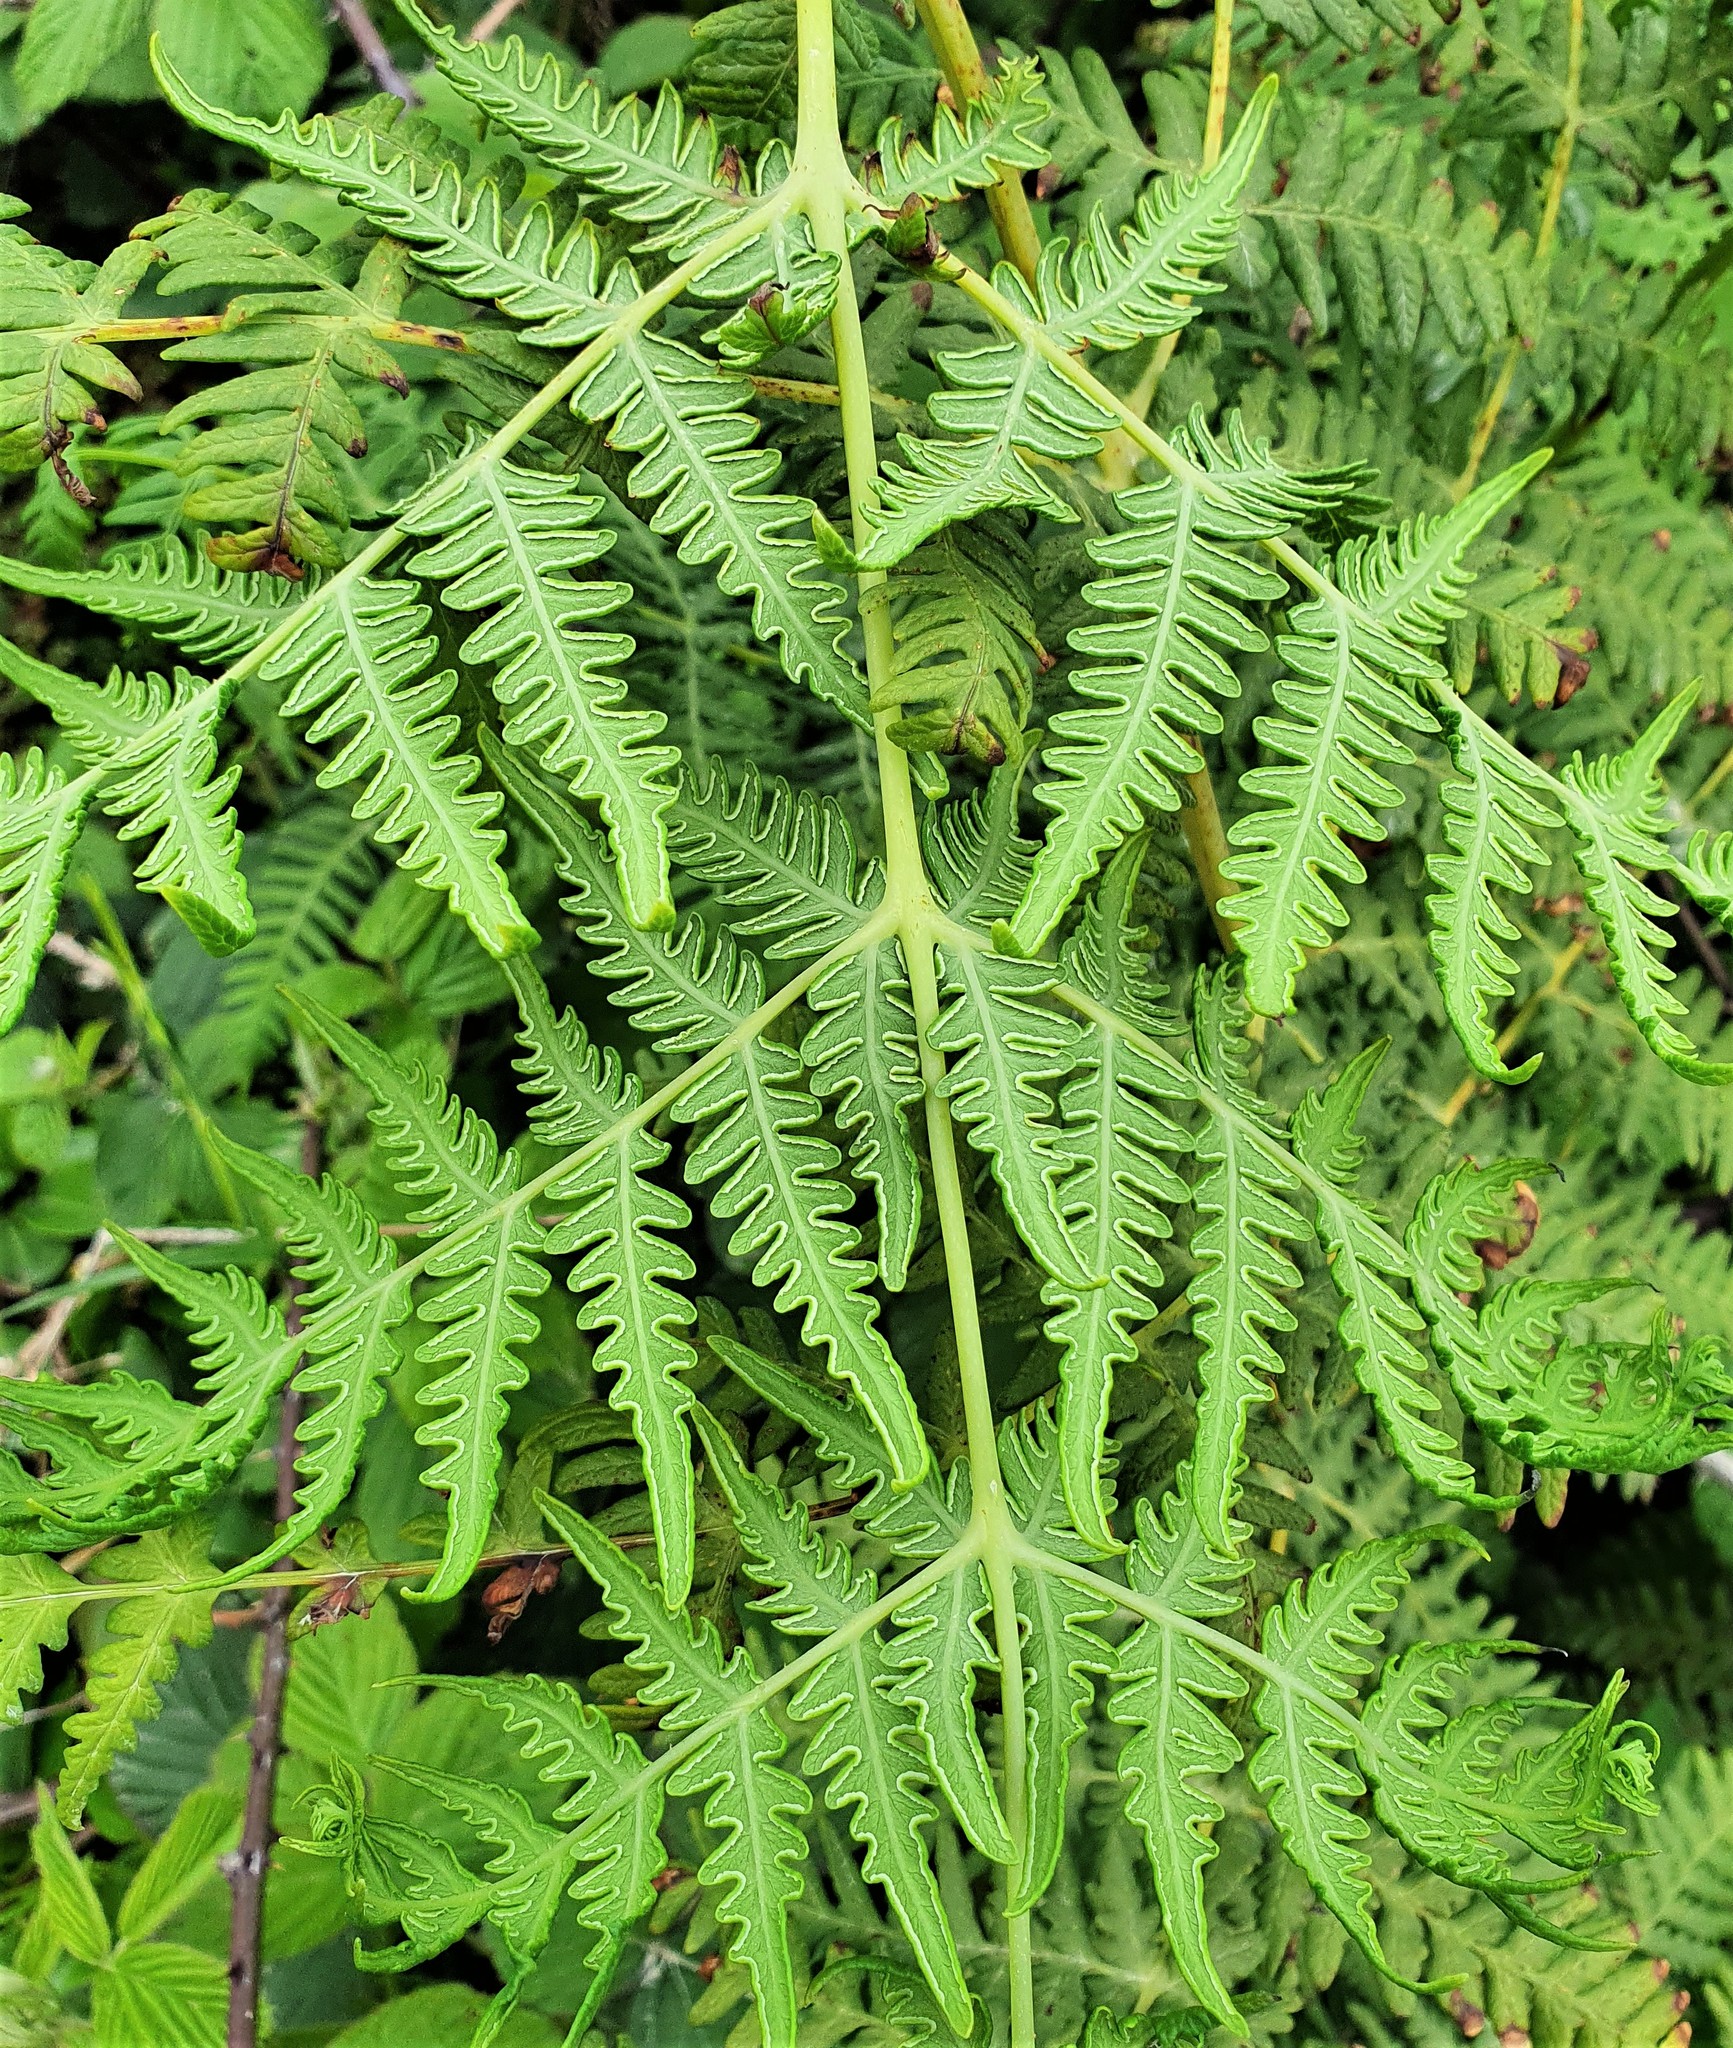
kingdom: Plantae
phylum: Tracheophyta
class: Polypodiopsida
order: Polypodiales
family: Dennstaedtiaceae
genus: Histiopteris
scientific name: Histiopteris incisa
